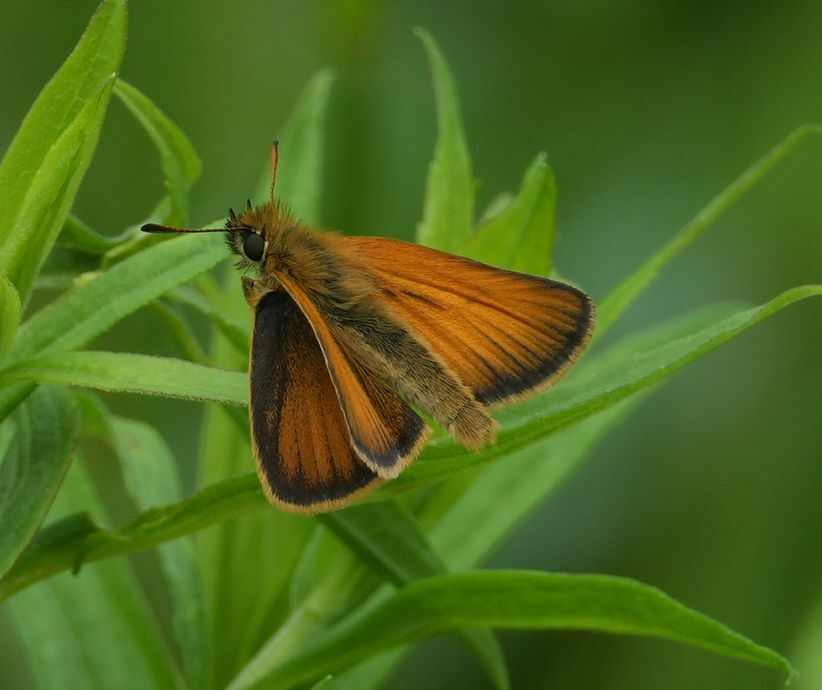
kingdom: Animalia
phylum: Arthropoda
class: Insecta
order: Lepidoptera
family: Hesperiidae
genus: Thymelicus
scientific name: Thymelicus lineola
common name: Essex skipper
